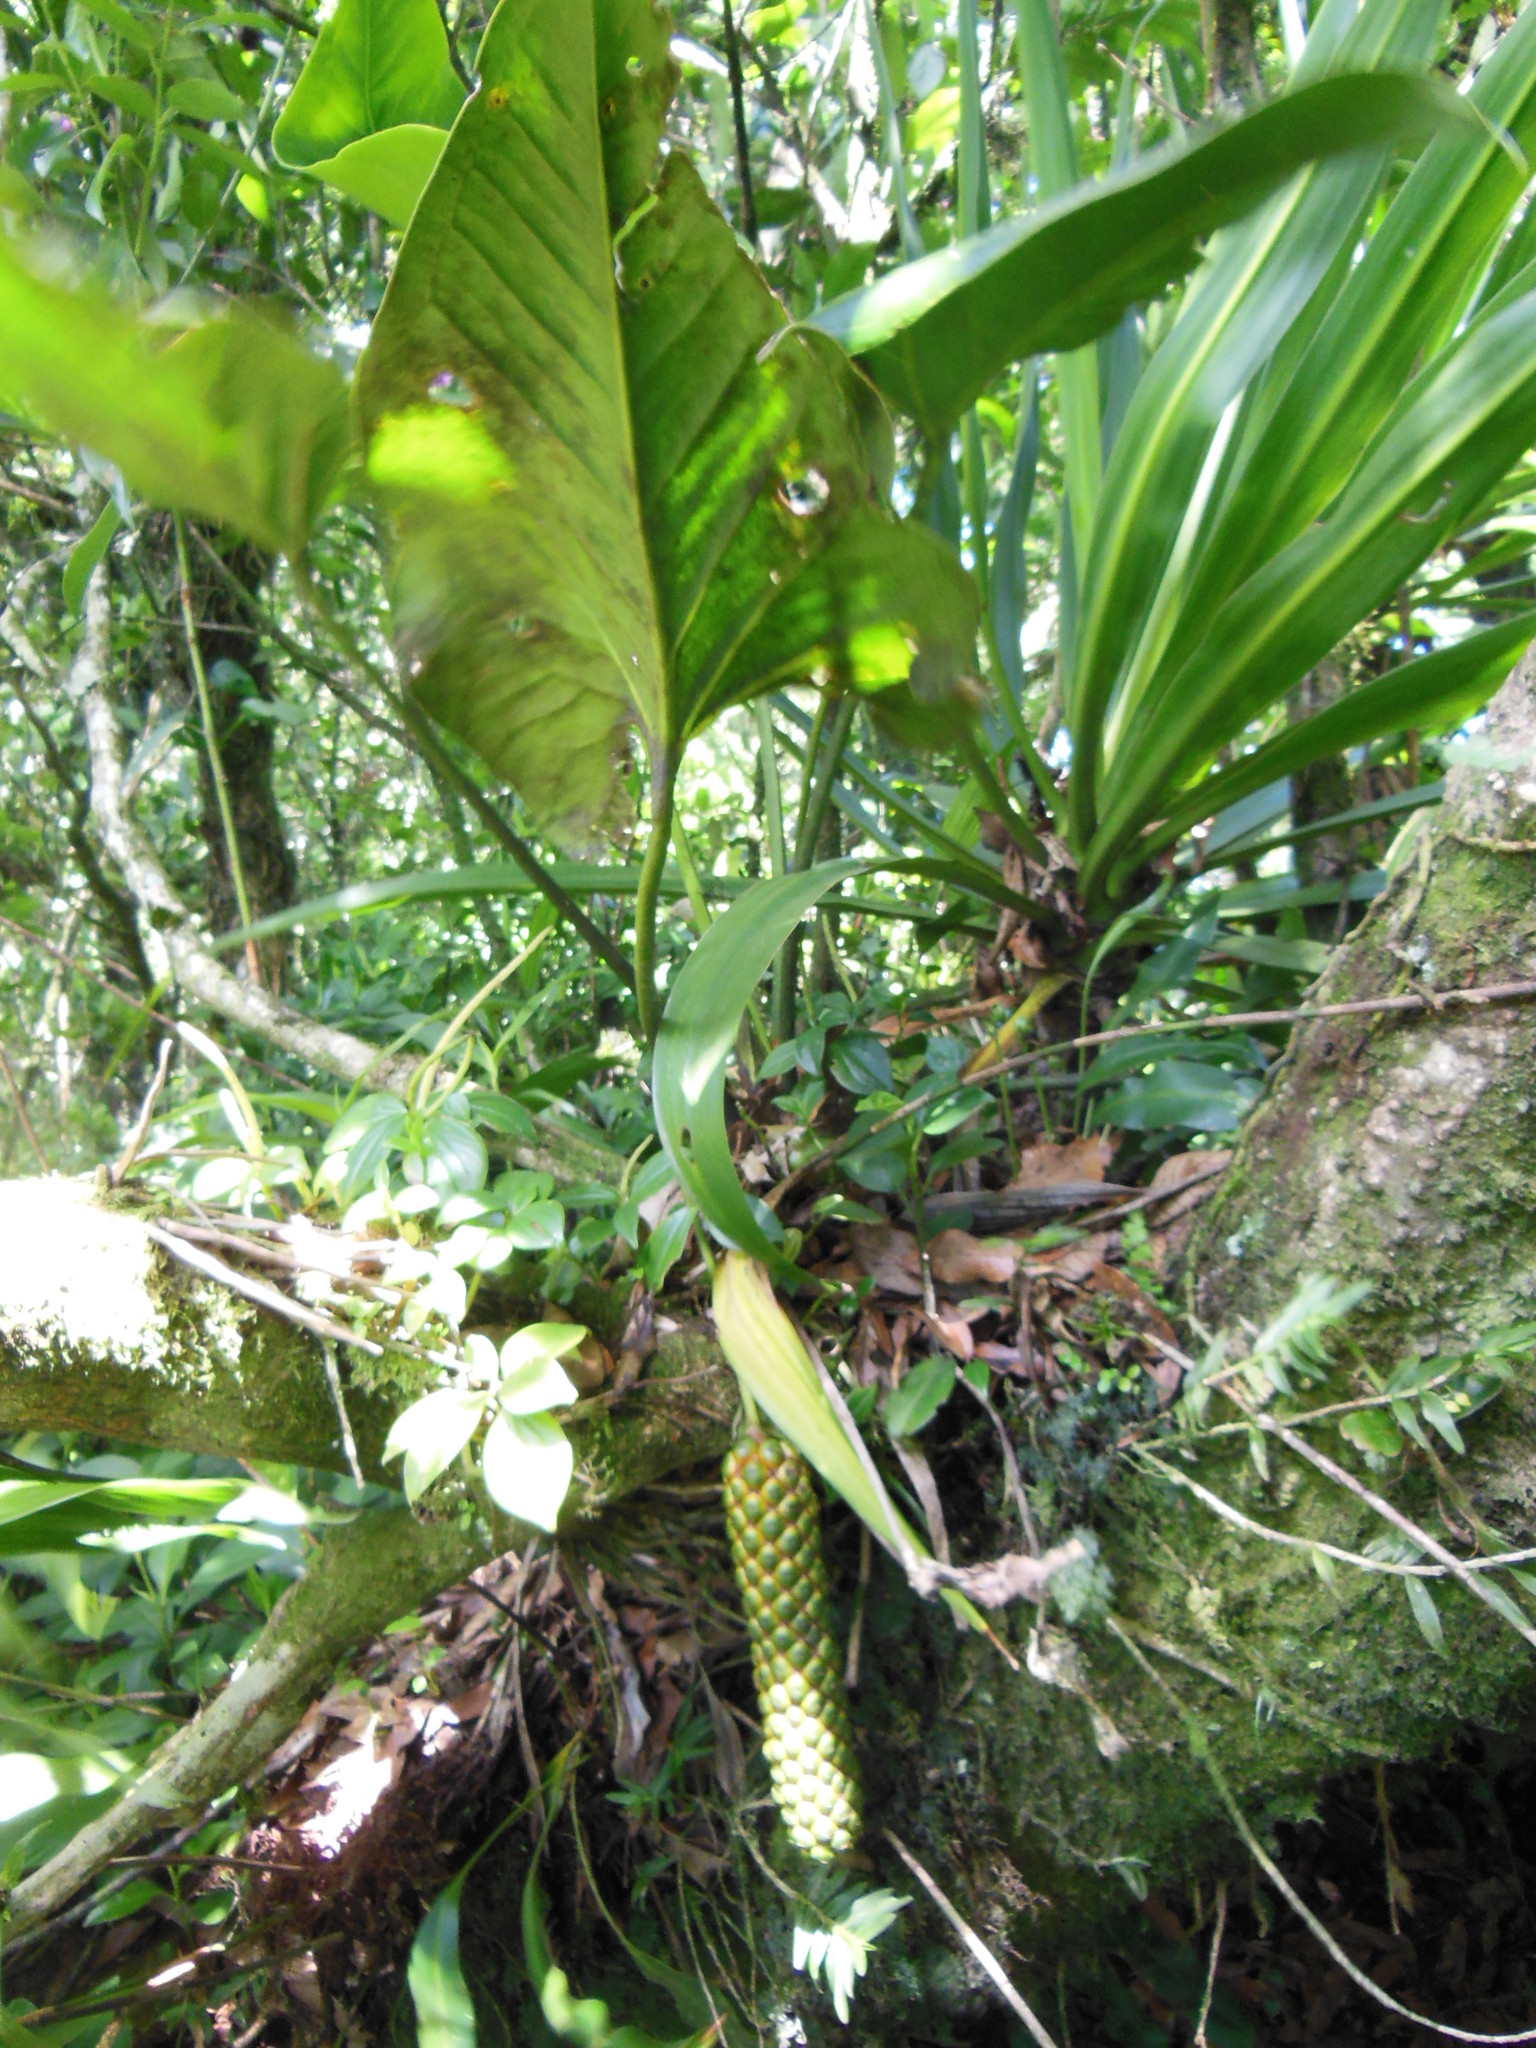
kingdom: Plantae
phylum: Tracheophyta
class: Liliopsida
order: Alismatales
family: Araceae
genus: Anthurium
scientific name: Anthurium cerrobaulense
